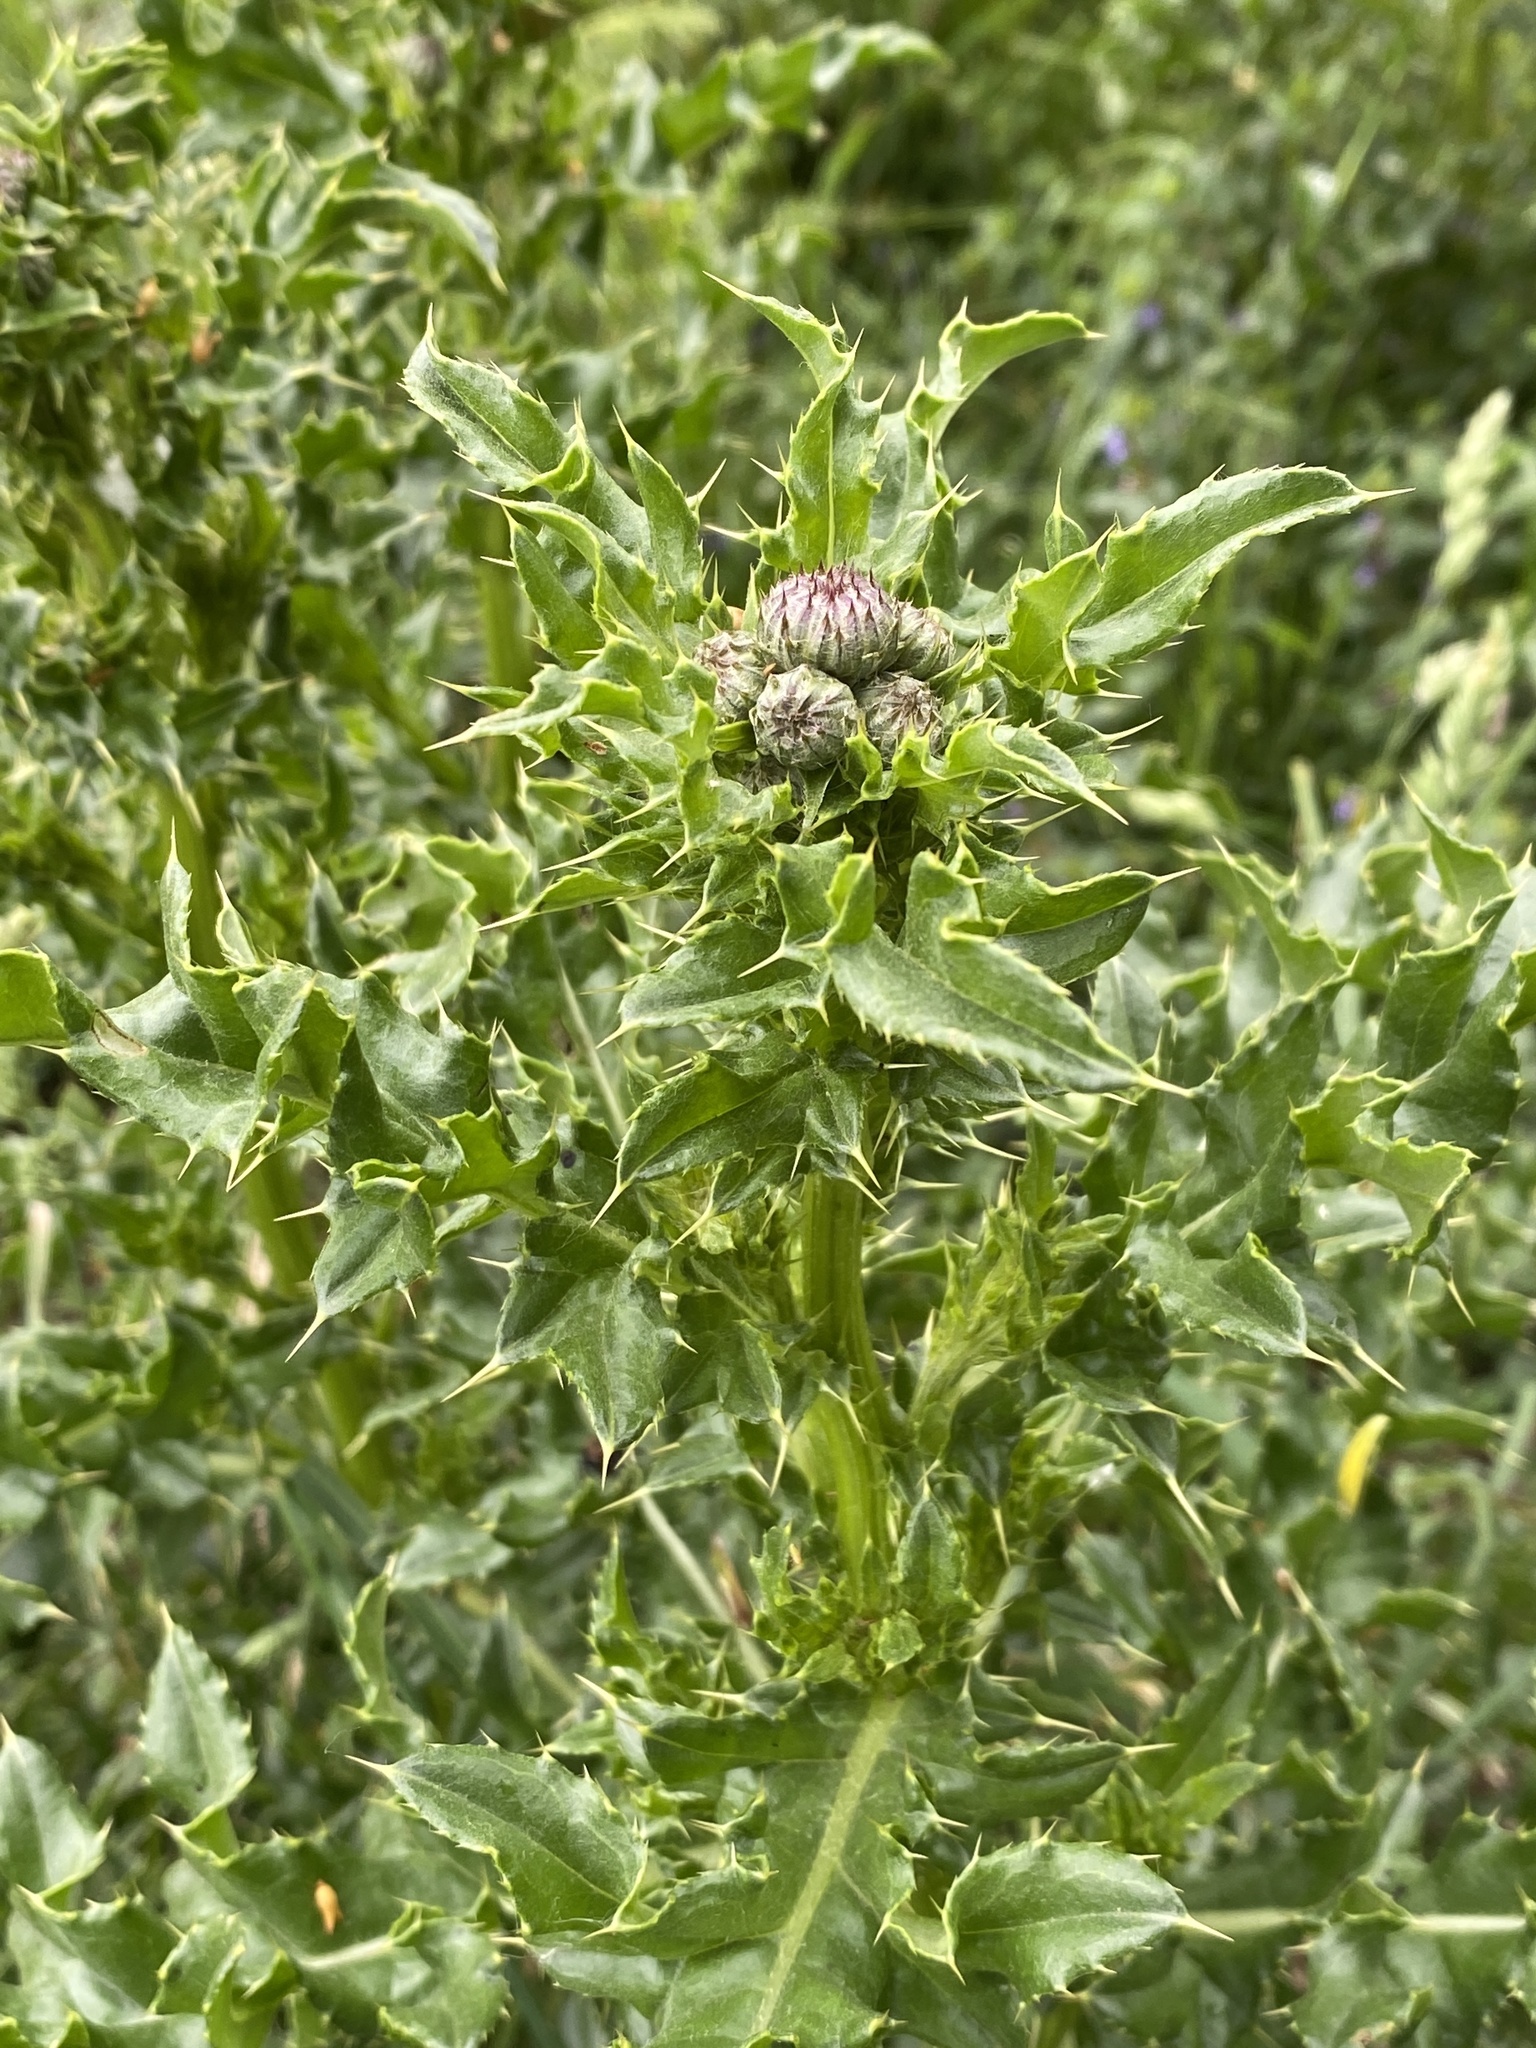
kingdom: Plantae
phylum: Tracheophyta
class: Magnoliopsida
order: Asterales
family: Asteraceae
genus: Cirsium
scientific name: Cirsium arvense
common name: Creeping thistle
